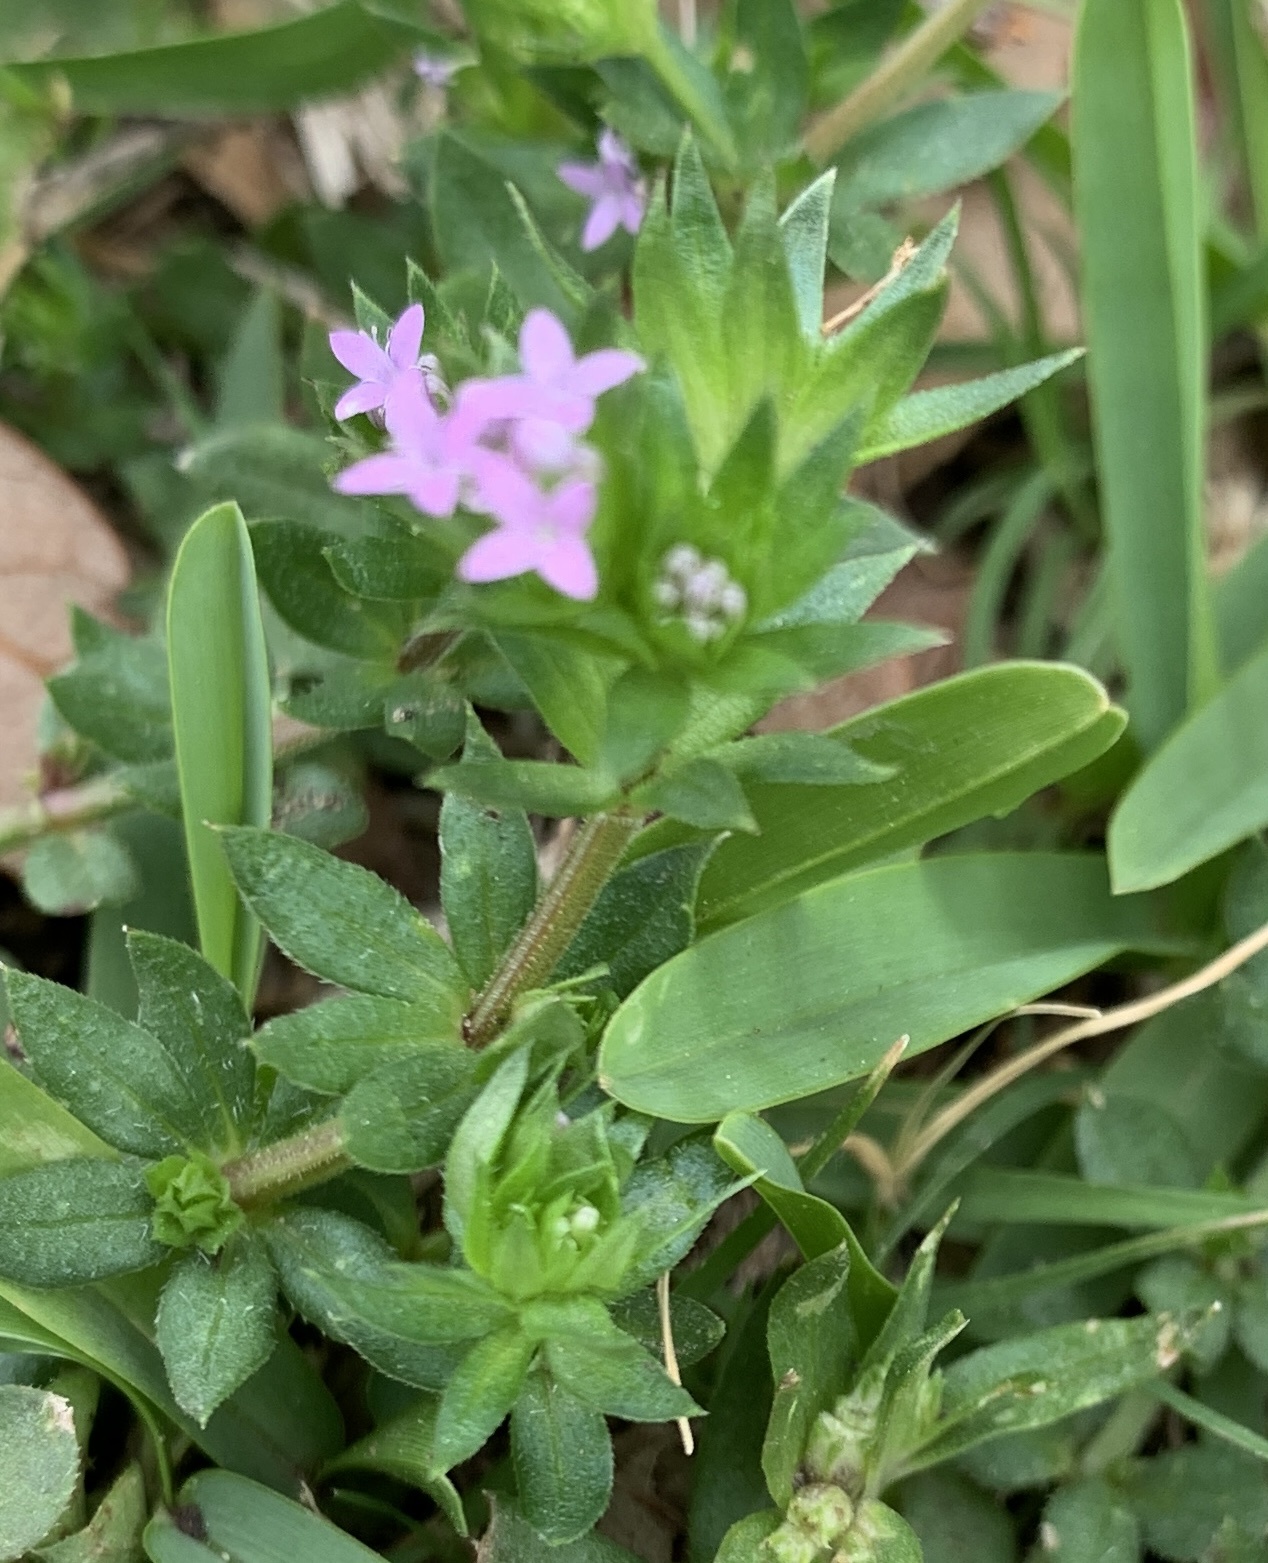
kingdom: Plantae
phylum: Tracheophyta
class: Magnoliopsida
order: Gentianales
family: Rubiaceae
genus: Sherardia
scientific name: Sherardia arvensis
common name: Field madder
